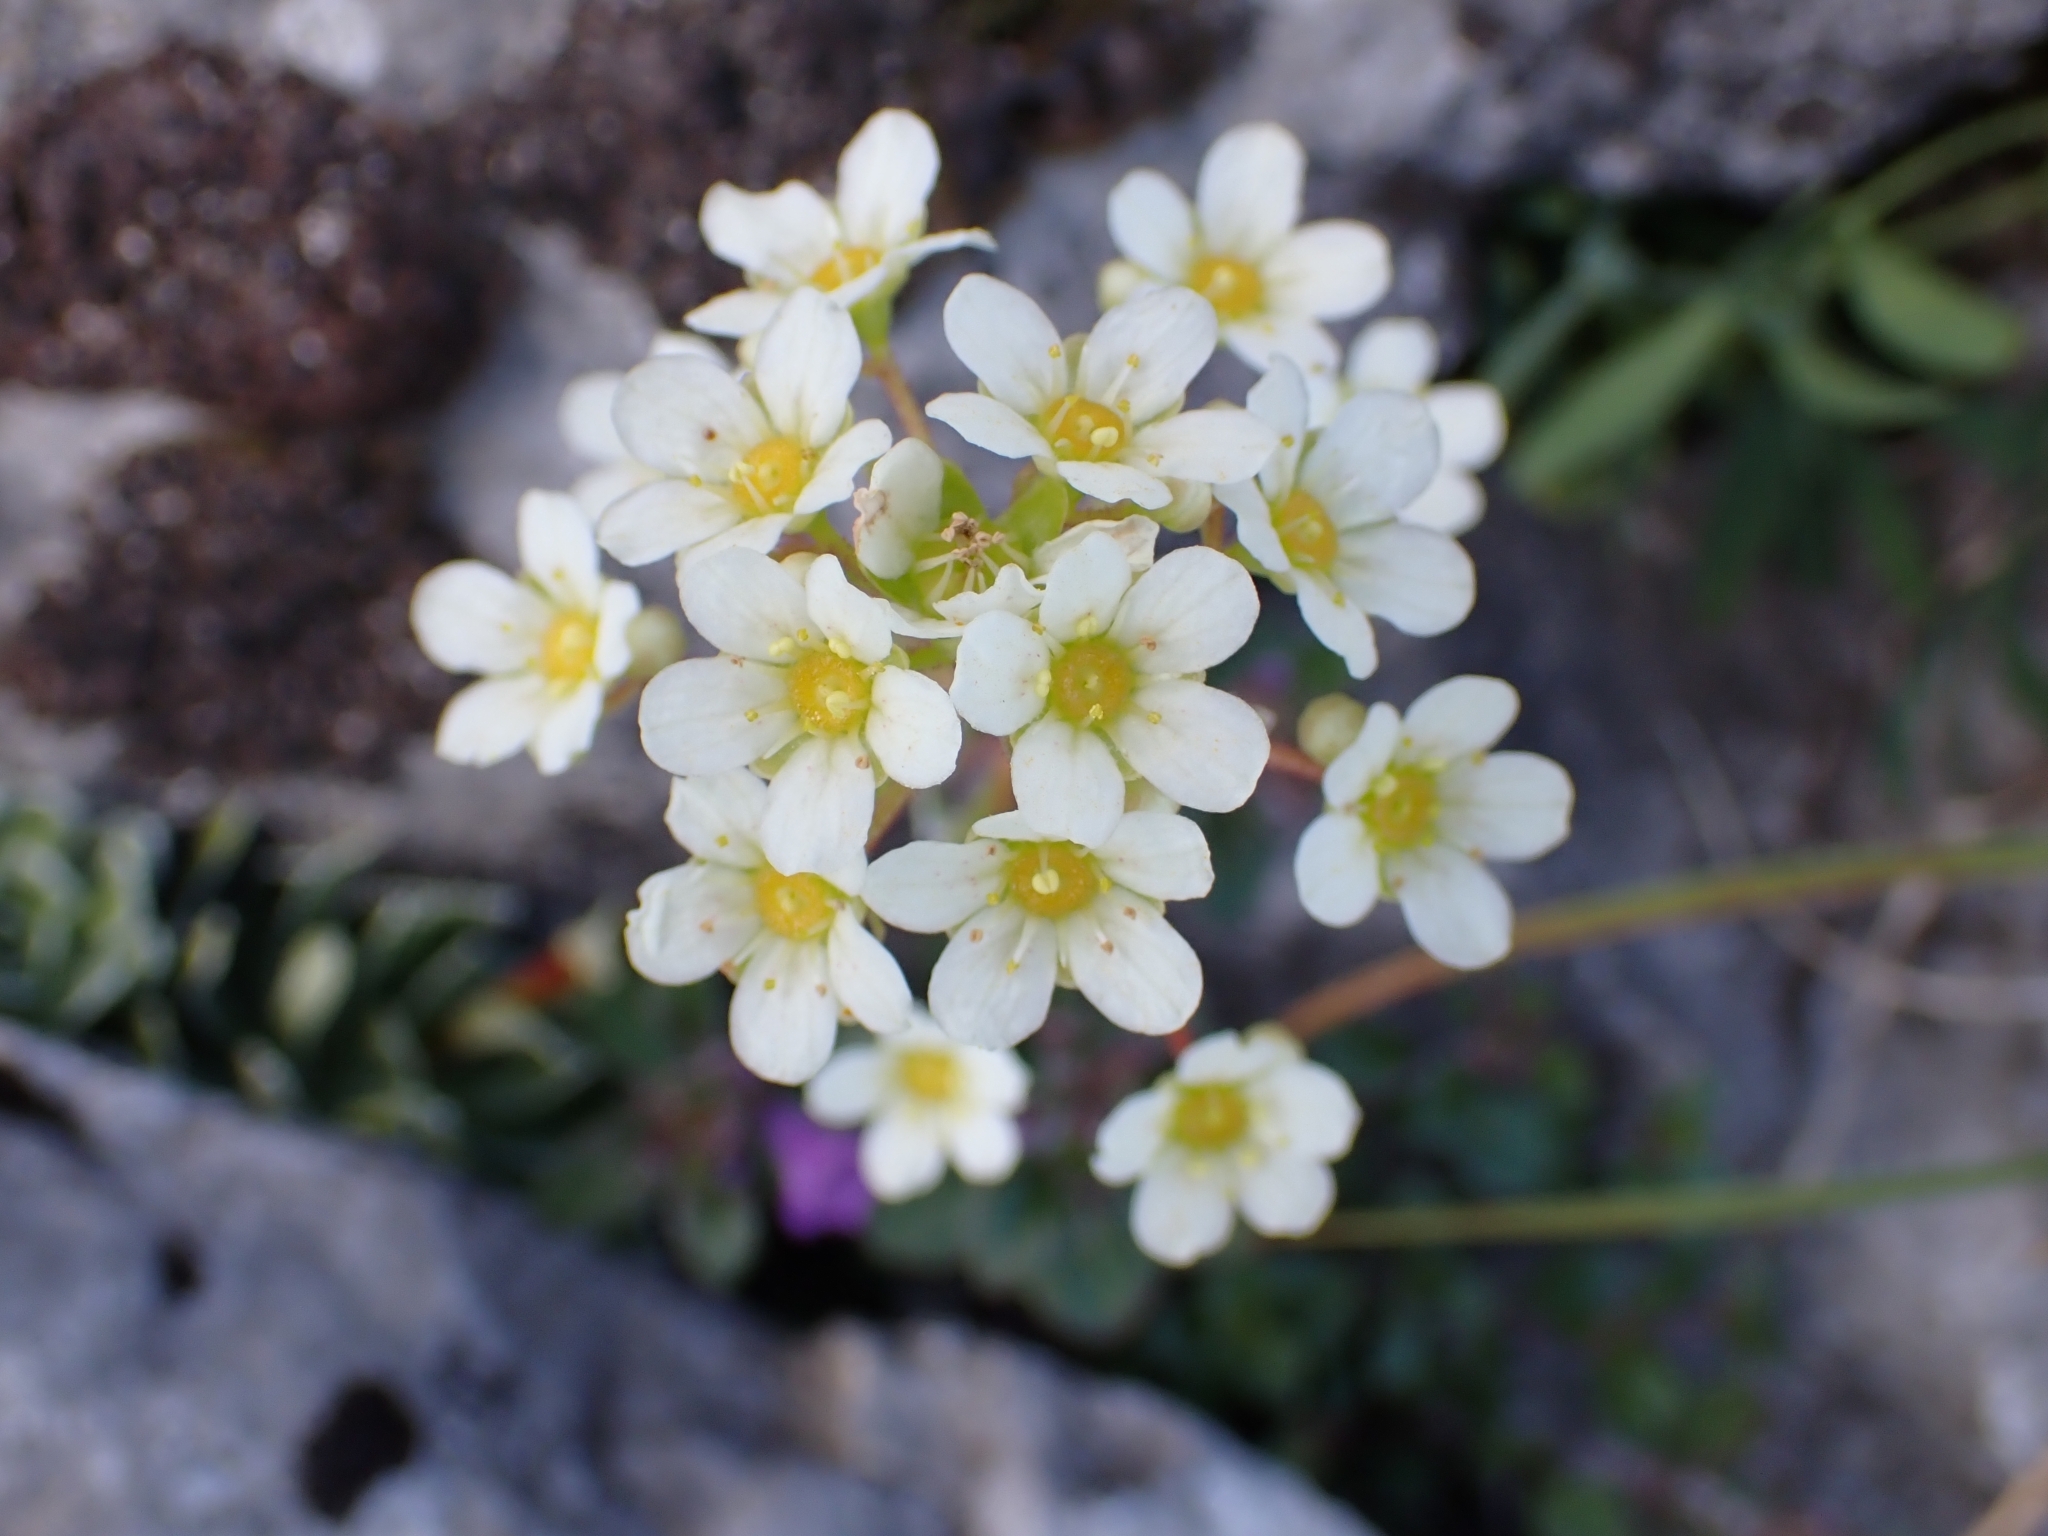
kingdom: Plantae
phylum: Tracheophyta
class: Magnoliopsida
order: Saxifragales
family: Saxifragaceae
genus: Saxifraga
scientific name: Saxifraga paniculata
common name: Livelong saxifrage
